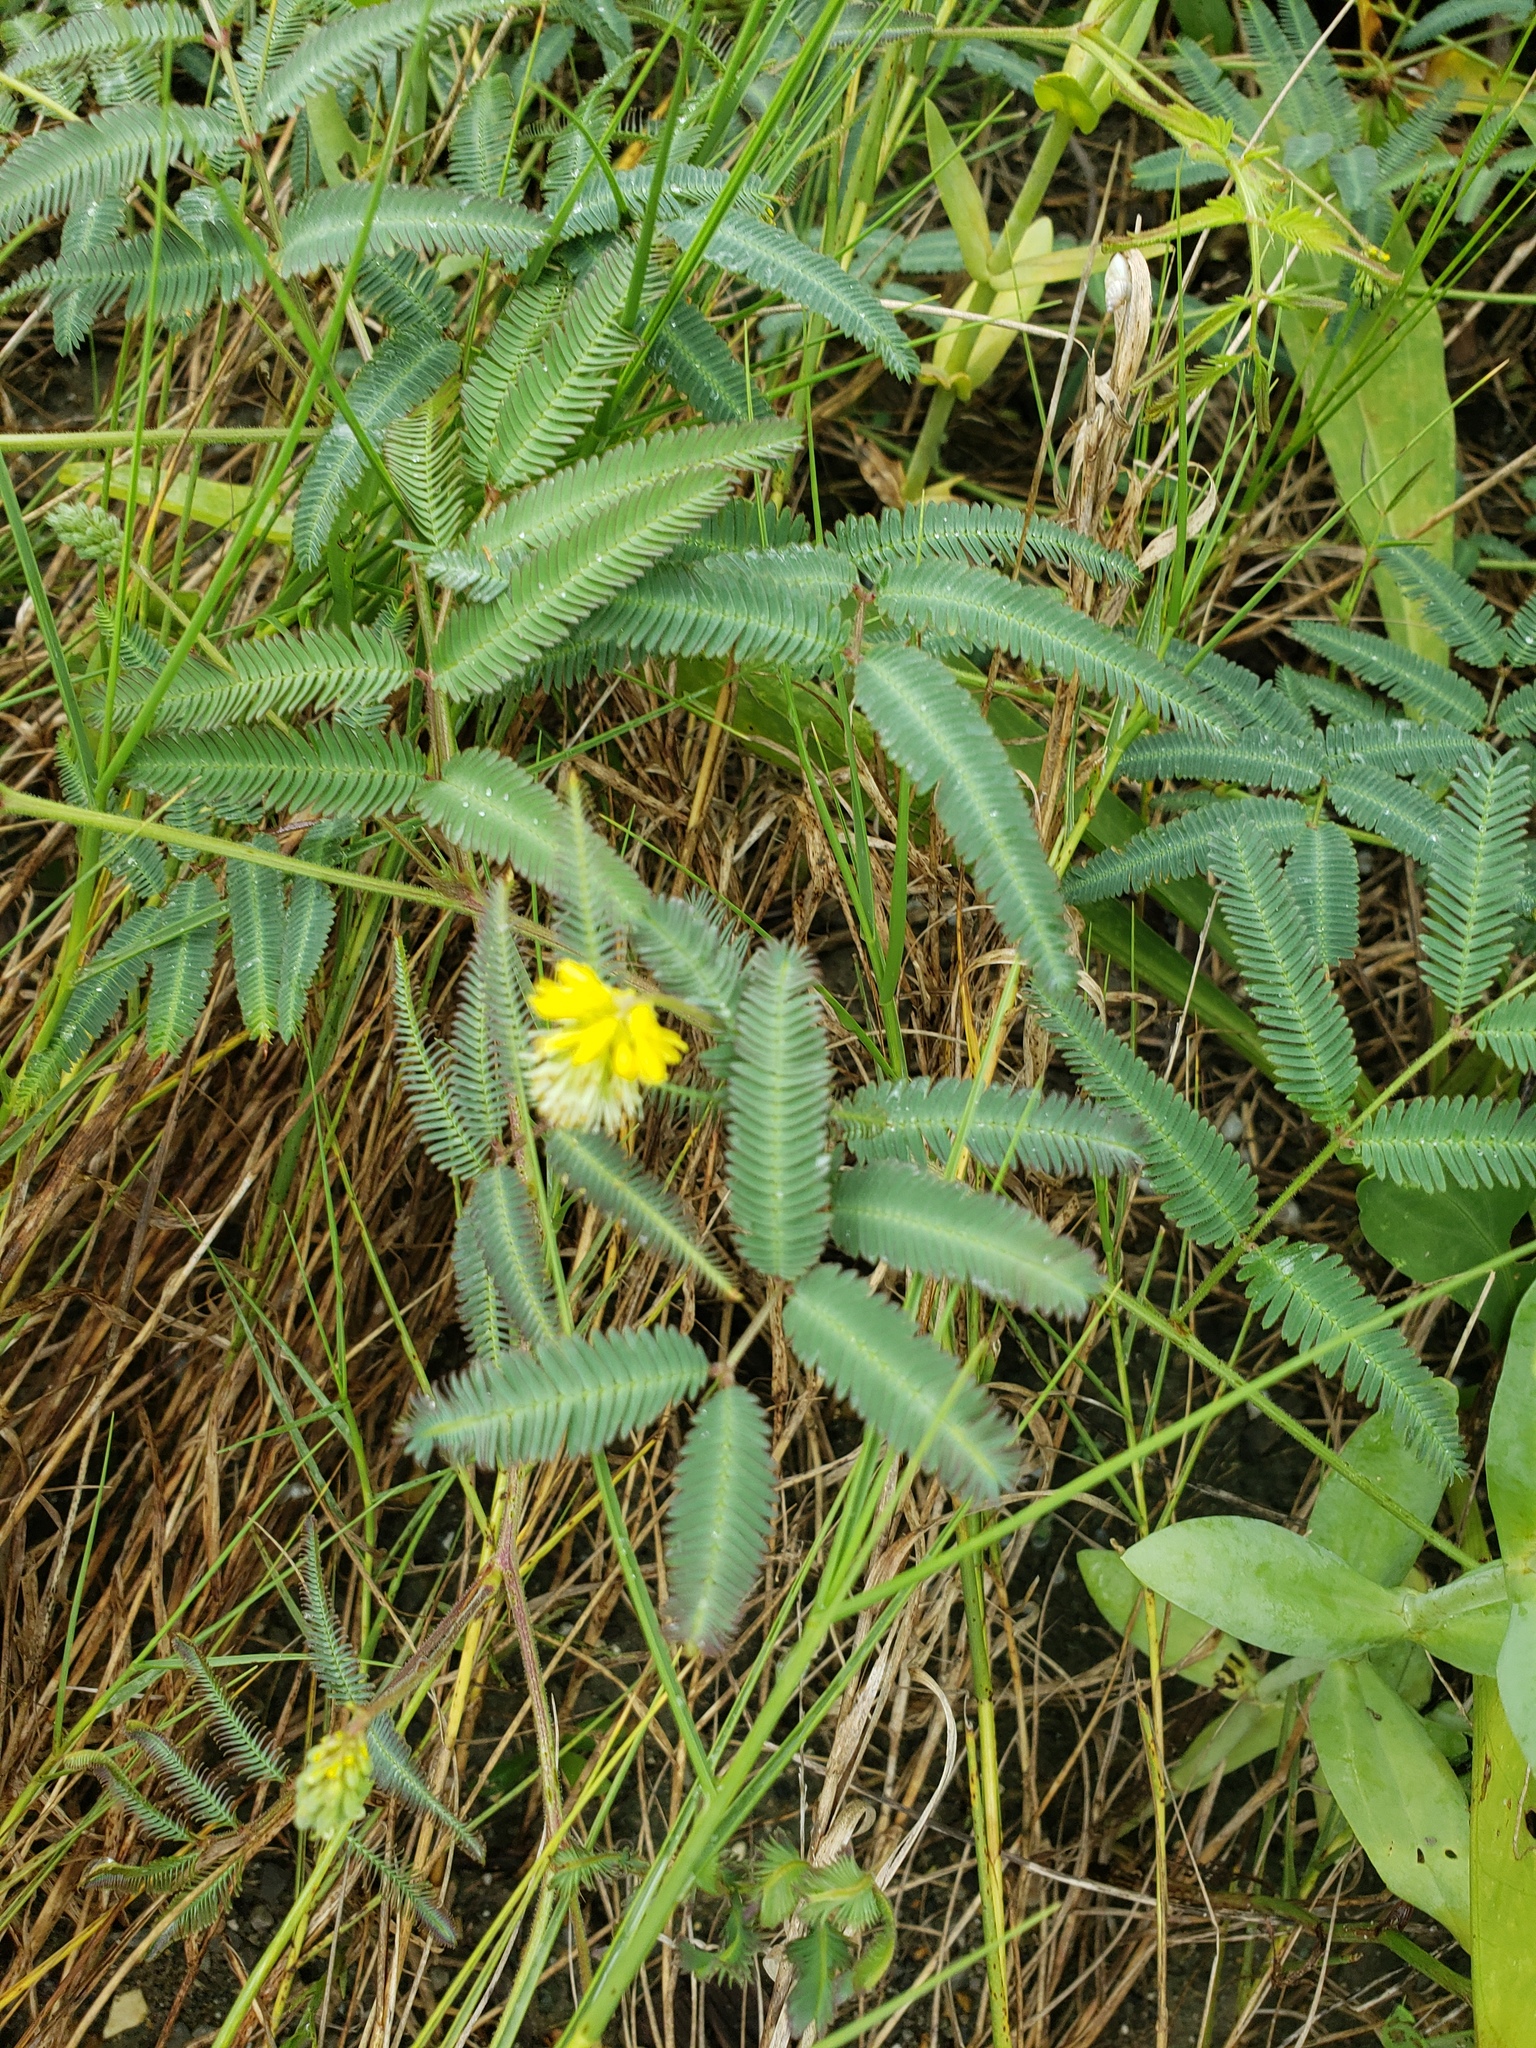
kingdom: Plantae
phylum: Tracheophyta
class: Magnoliopsida
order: Fabales
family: Fabaceae
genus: Neptunia
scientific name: Neptunia pubescens
